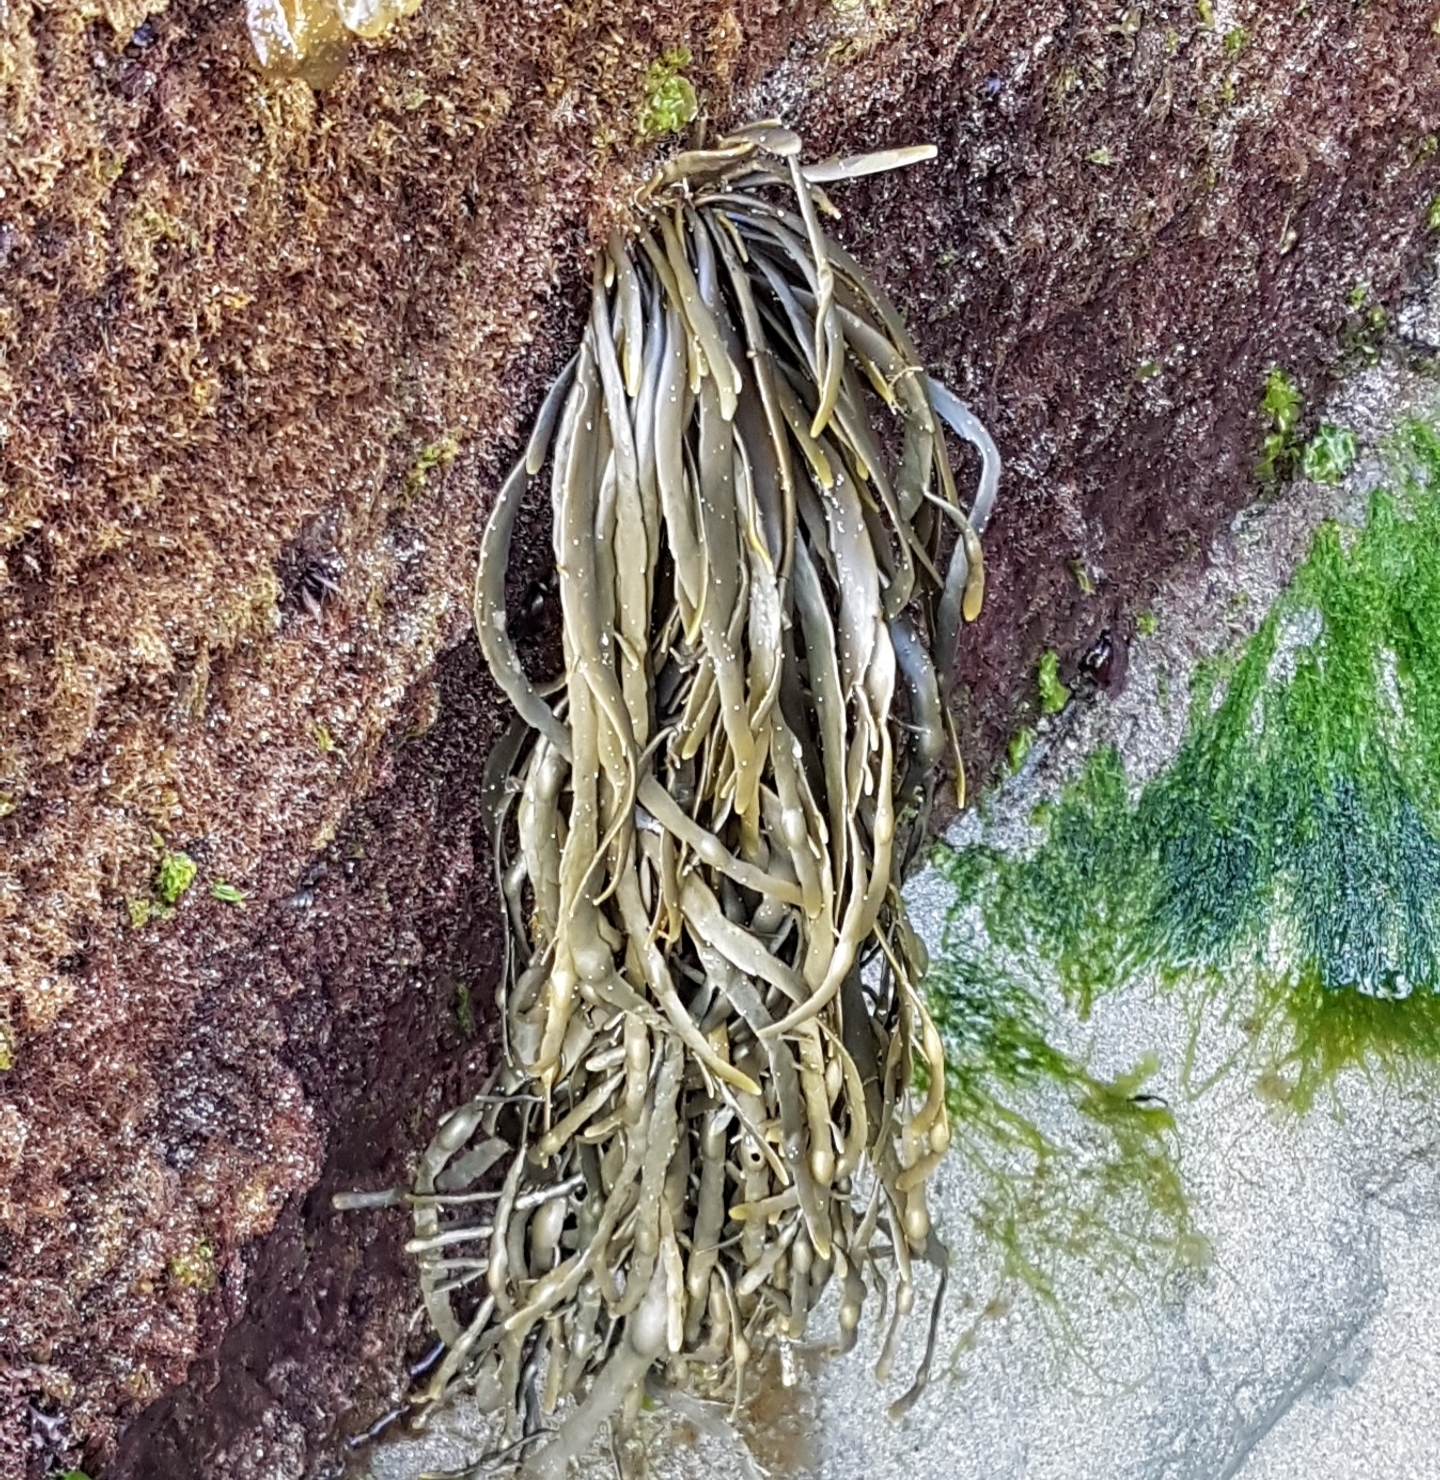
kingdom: Chromista
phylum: Ochrophyta
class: Phaeophyceae
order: Fucales
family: Fucaceae
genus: Ascophyllum
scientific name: Ascophyllum nodosum
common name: Knotted wrack
